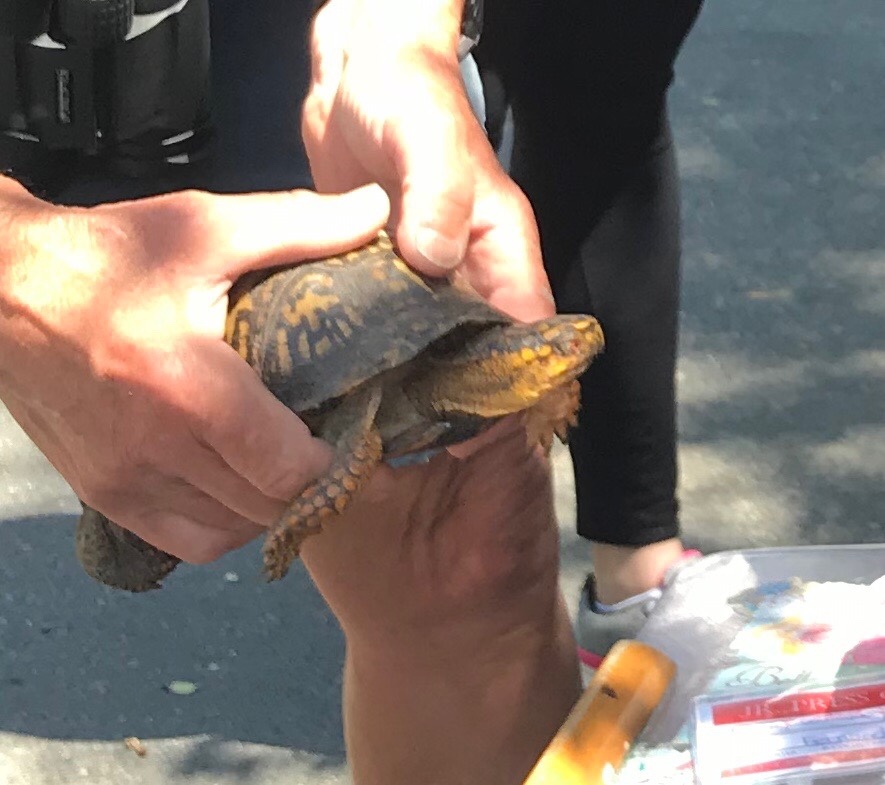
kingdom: Animalia
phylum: Chordata
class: Testudines
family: Emydidae
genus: Terrapene
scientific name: Terrapene carolina
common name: Common box turtle
